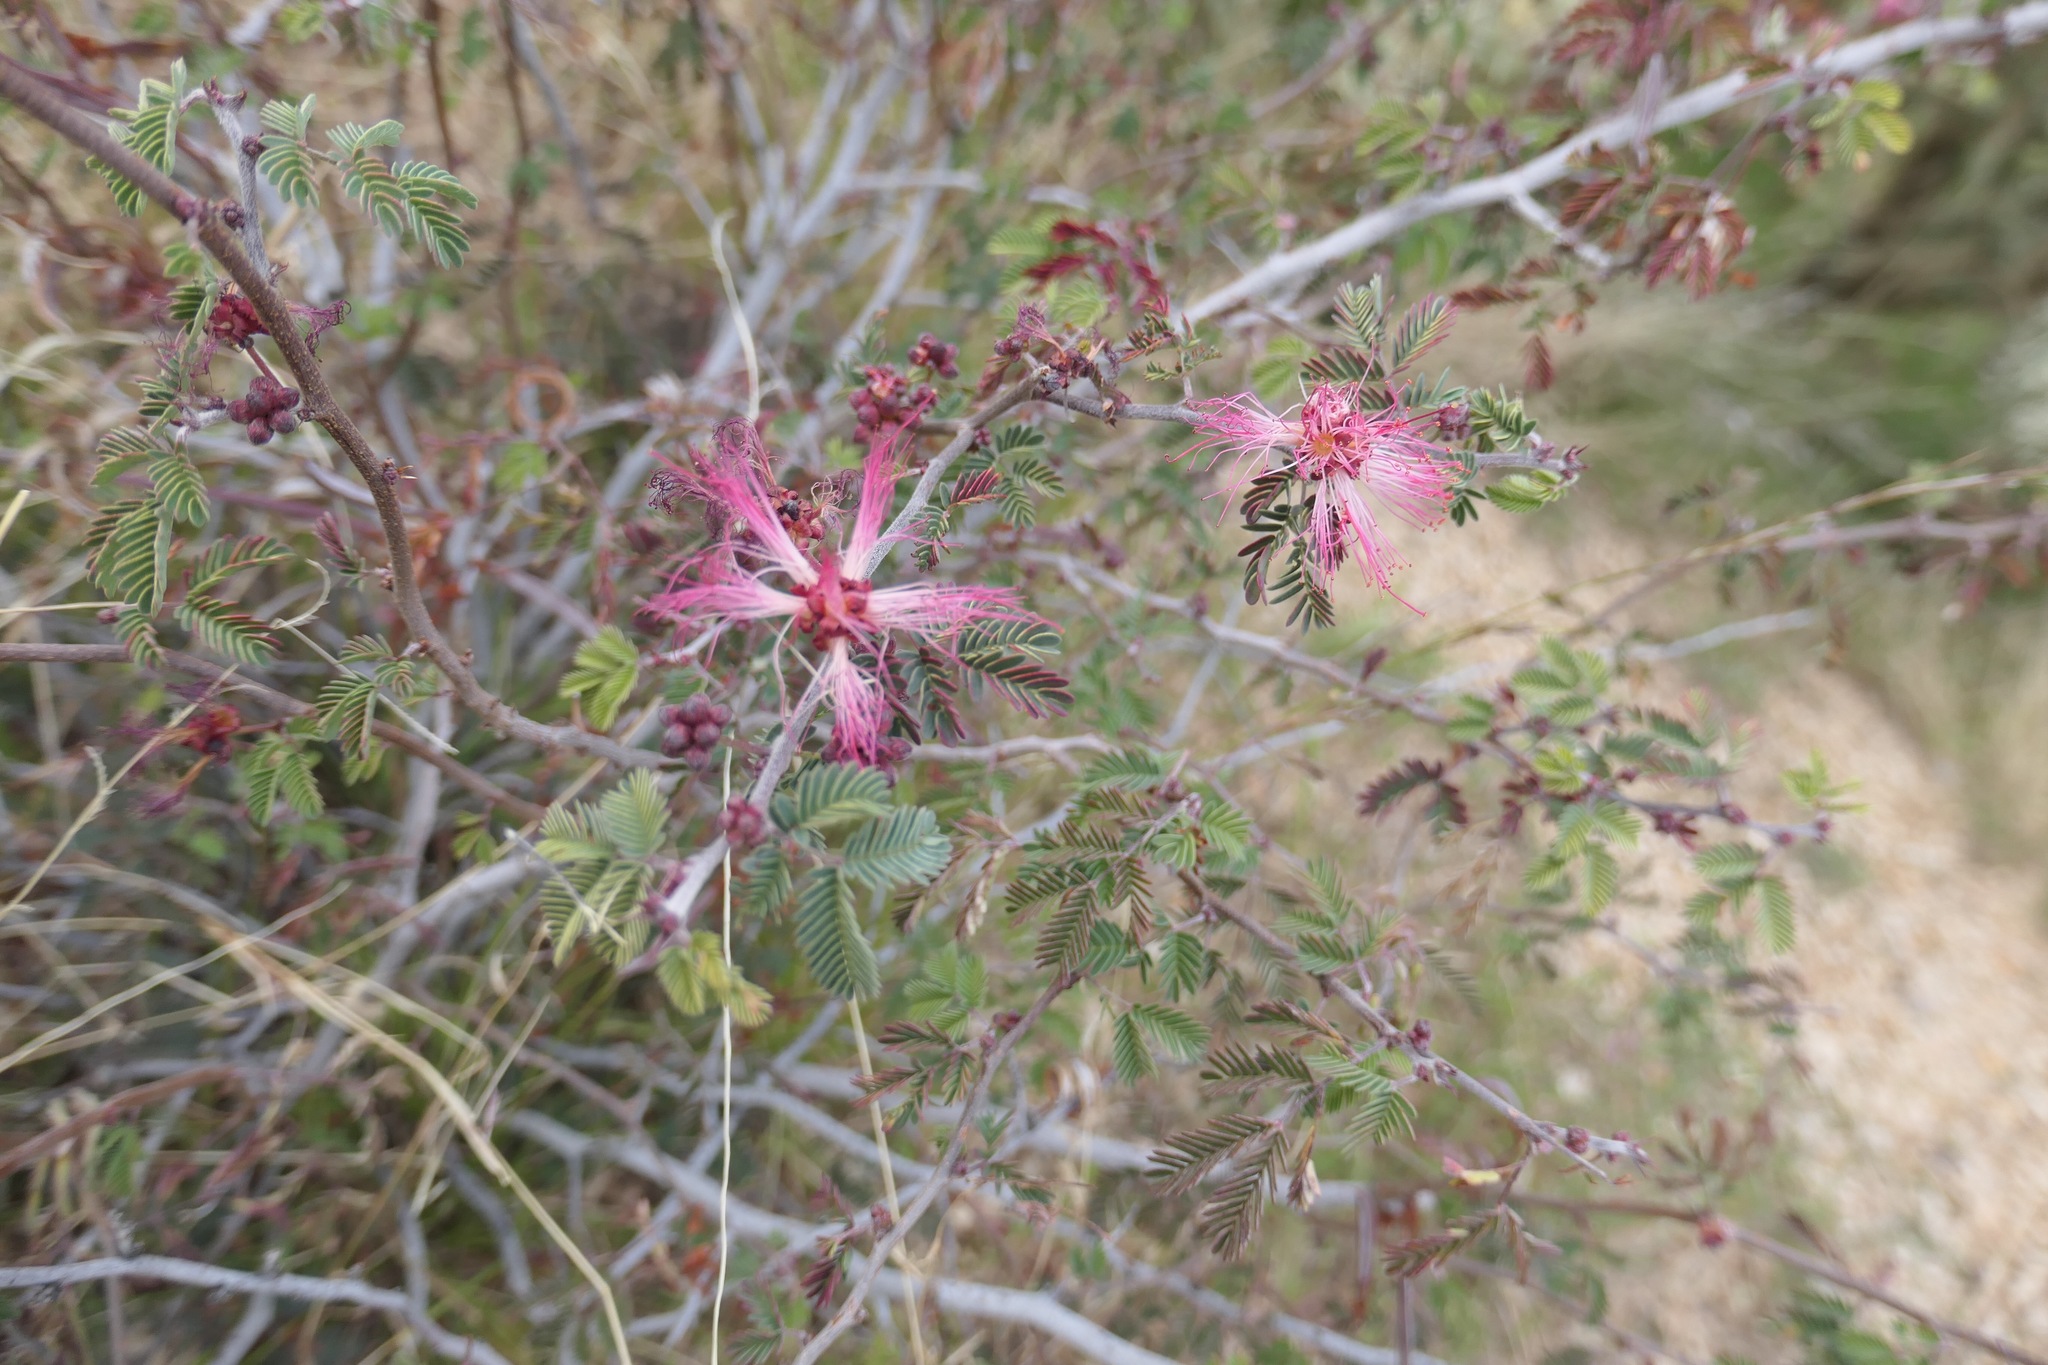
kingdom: Plantae
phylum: Tracheophyta
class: Magnoliopsida
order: Fabales
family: Fabaceae
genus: Calliandra
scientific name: Calliandra eriophylla
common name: Fairy-duster
